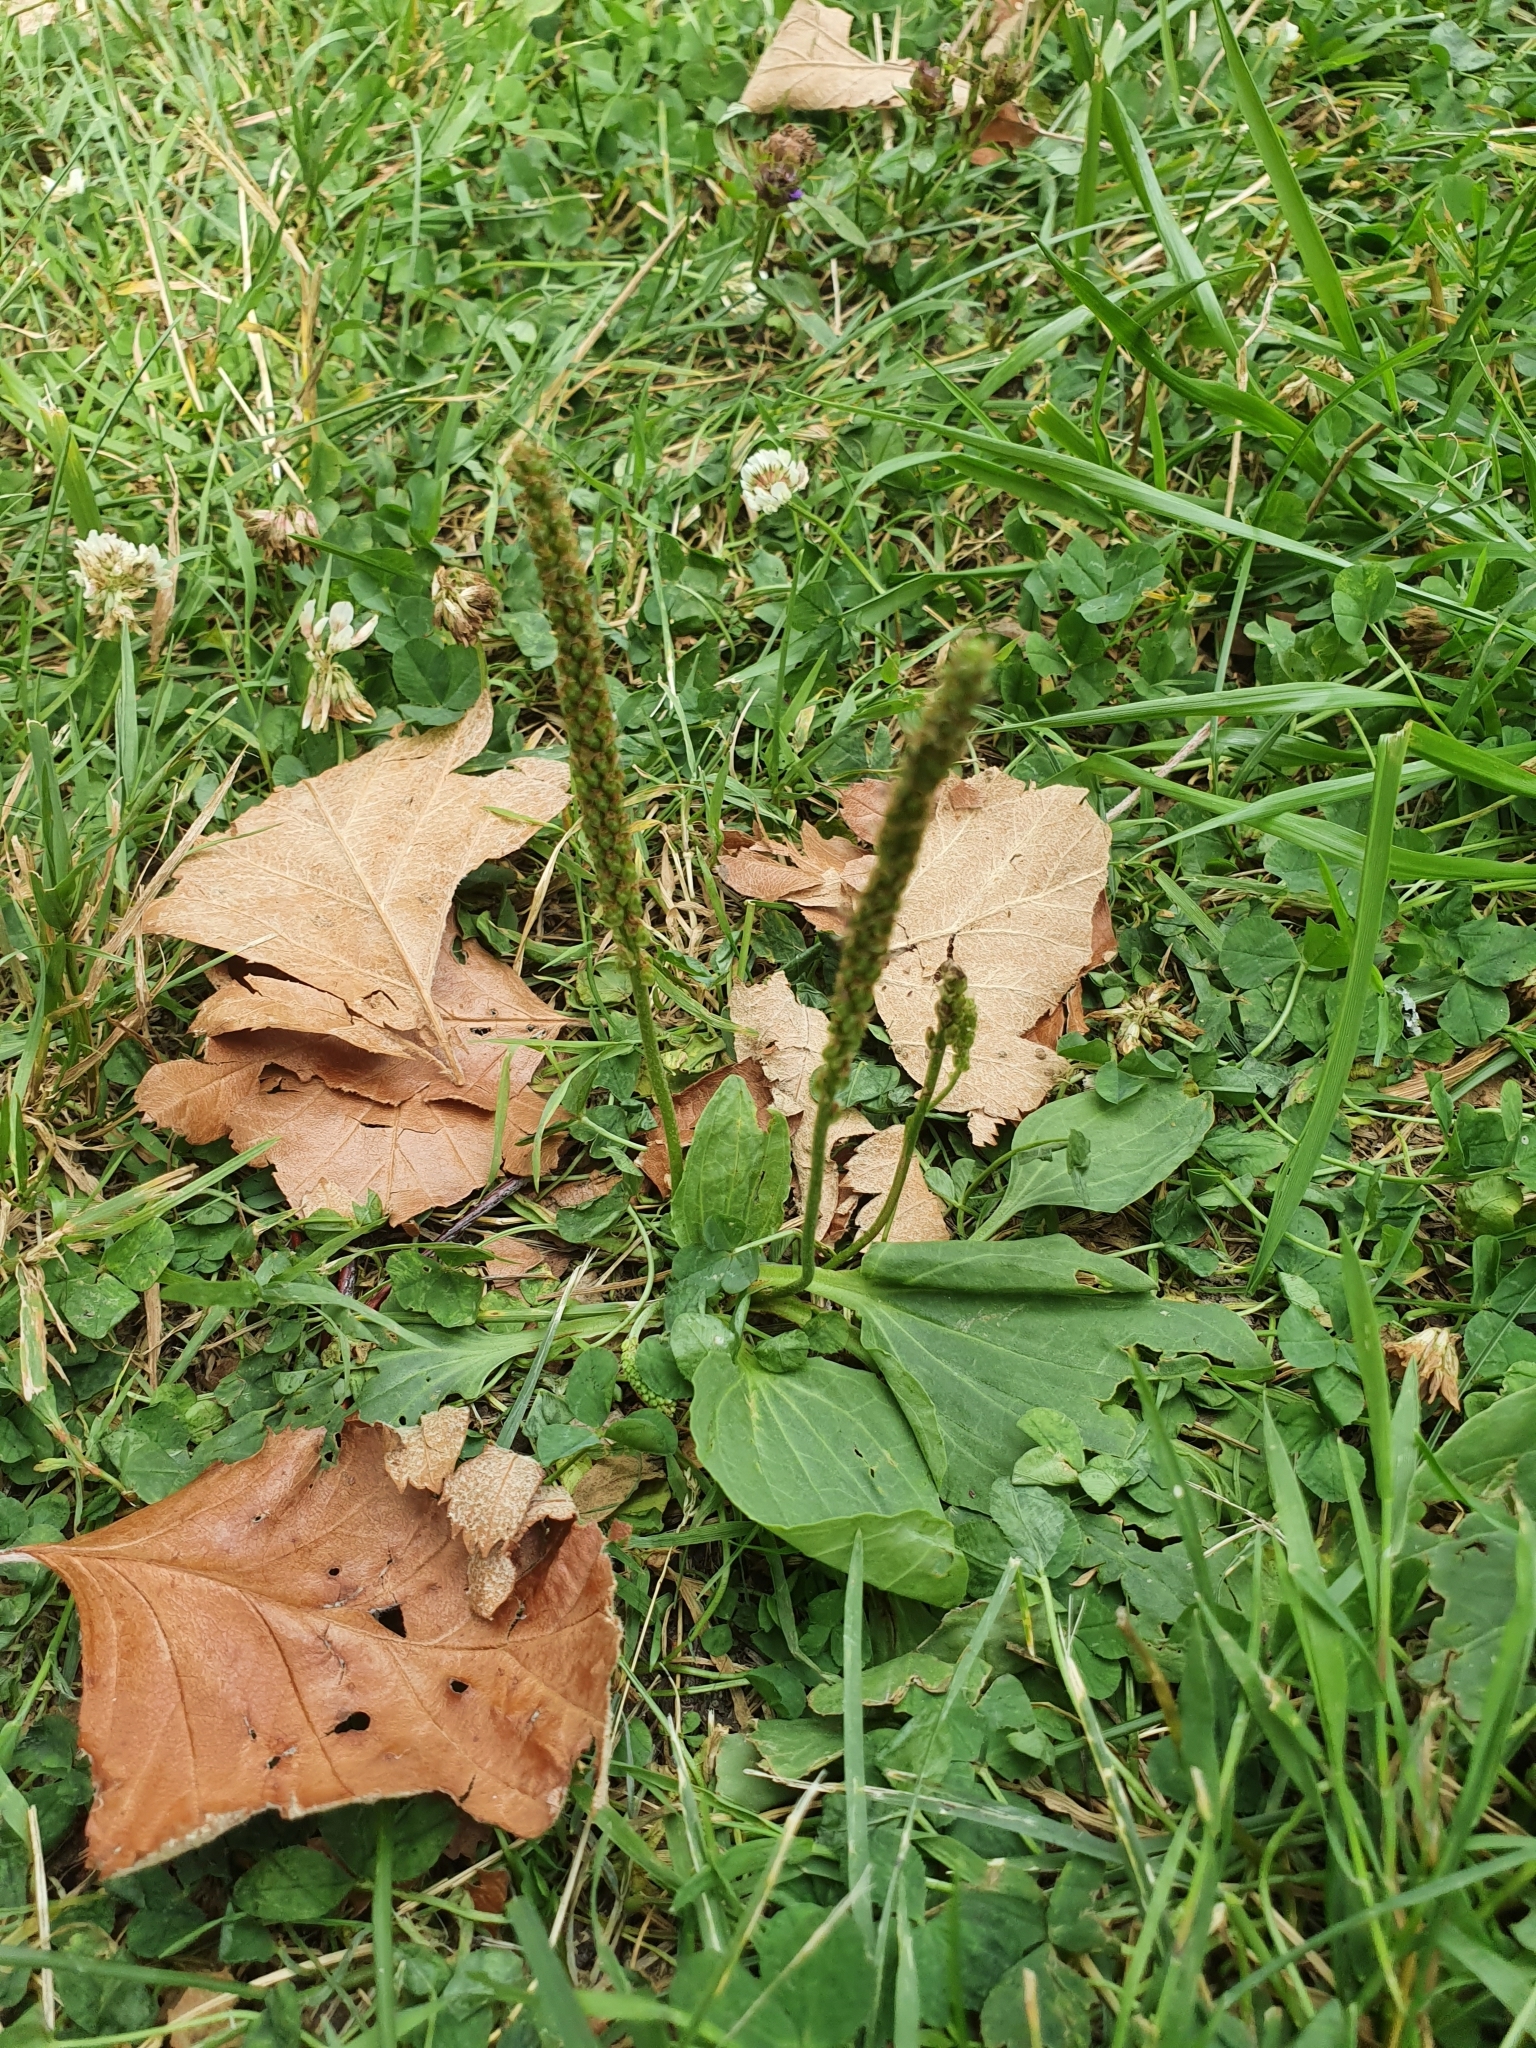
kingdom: Plantae
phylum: Tracheophyta
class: Magnoliopsida
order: Lamiales
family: Plantaginaceae
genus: Plantago
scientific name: Plantago major
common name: Common plantain
